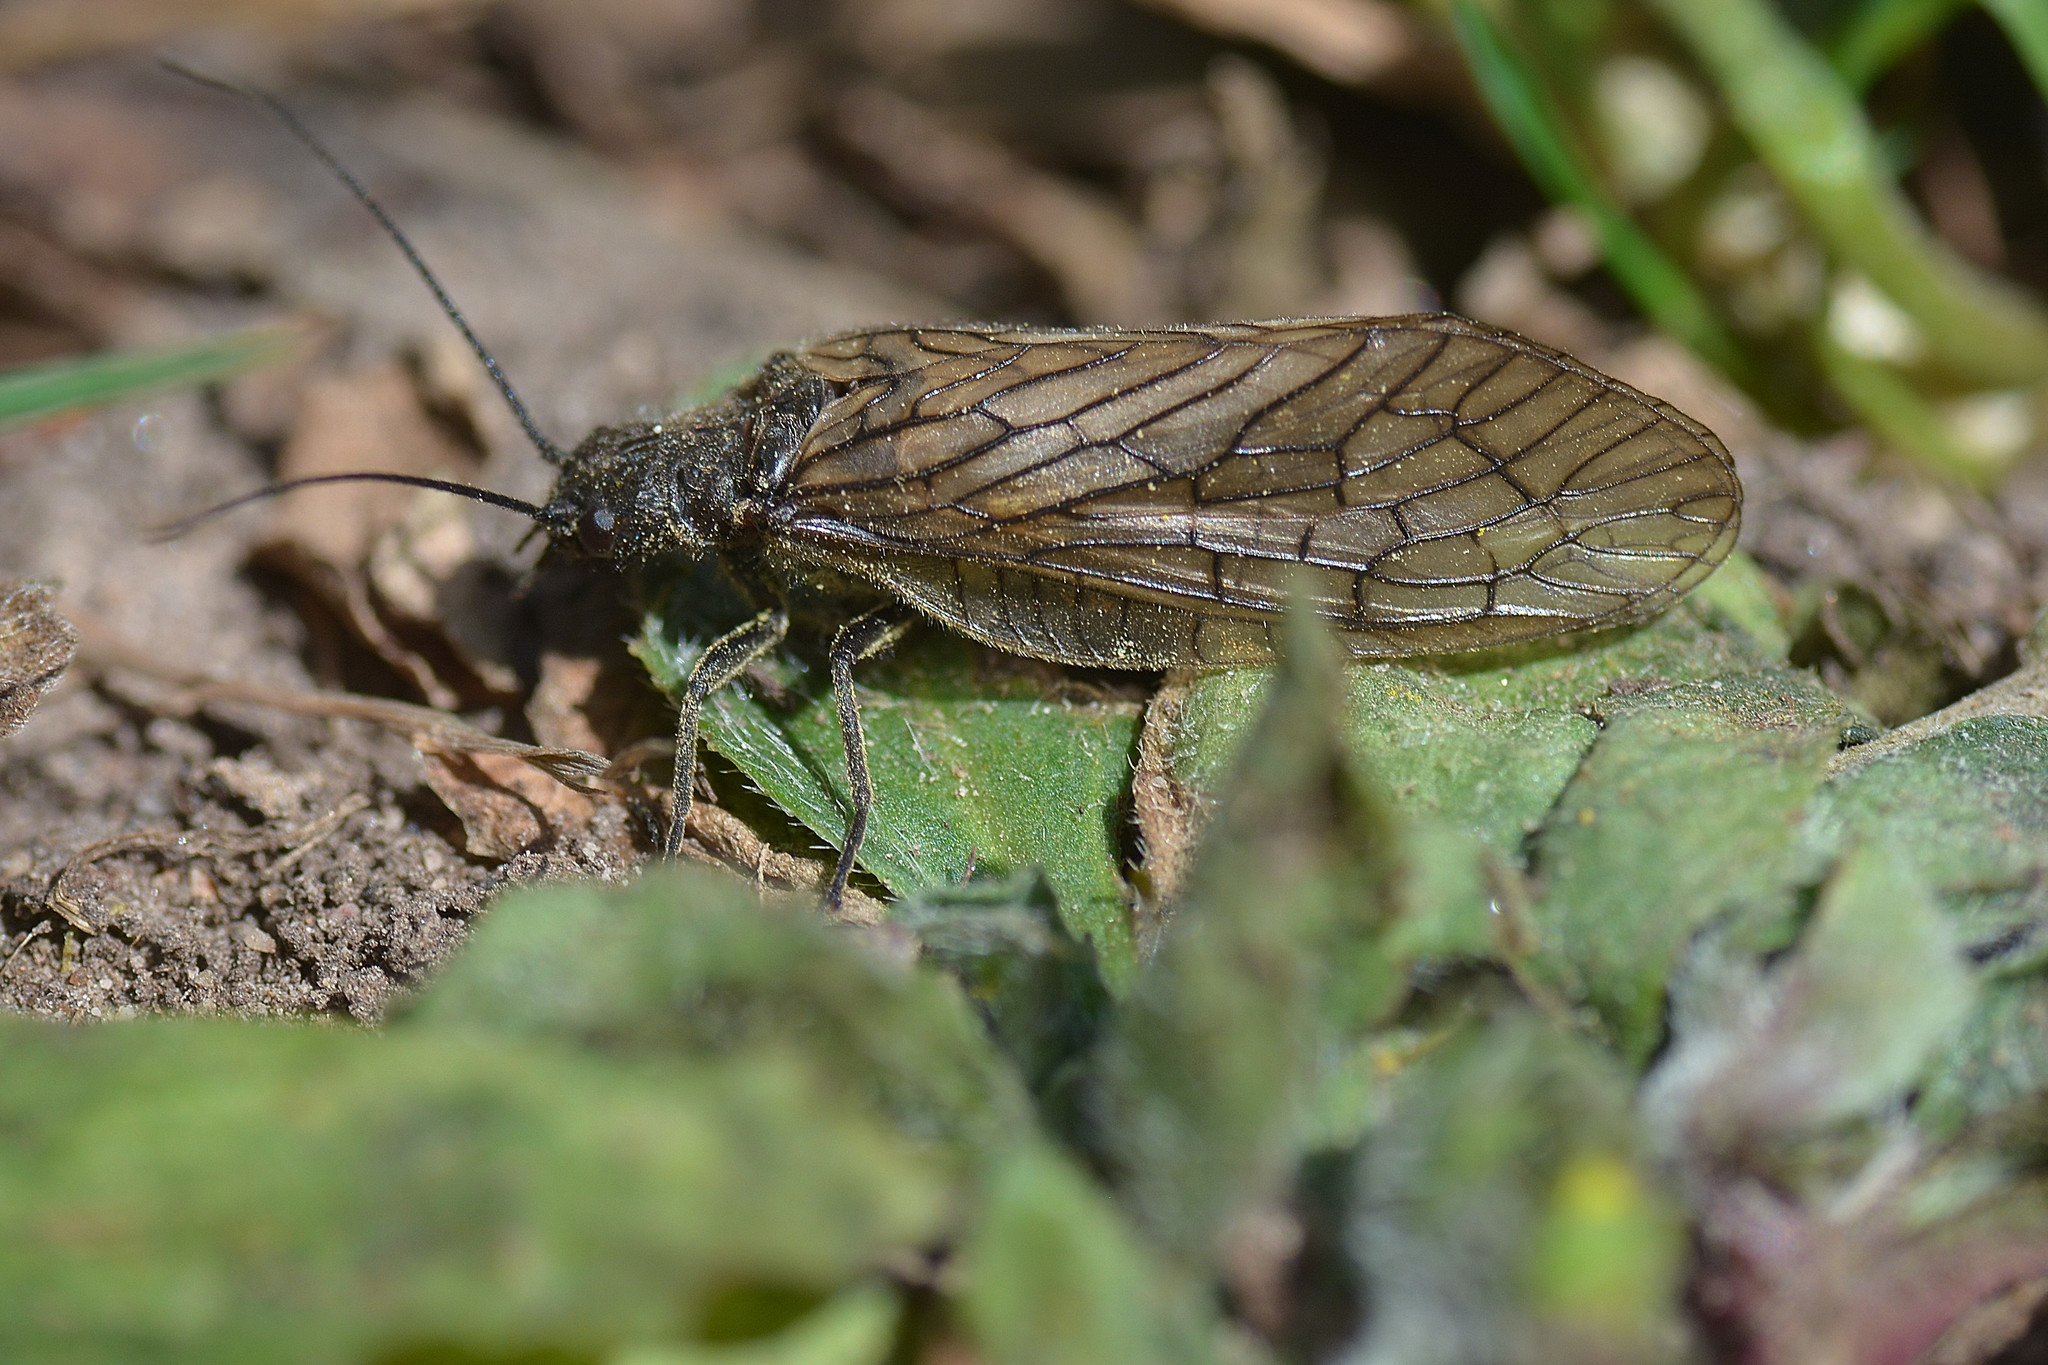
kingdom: Animalia
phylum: Arthropoda
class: Insecta
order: Megaloptera
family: Sialidae
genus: Sialis
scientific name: Sialis
